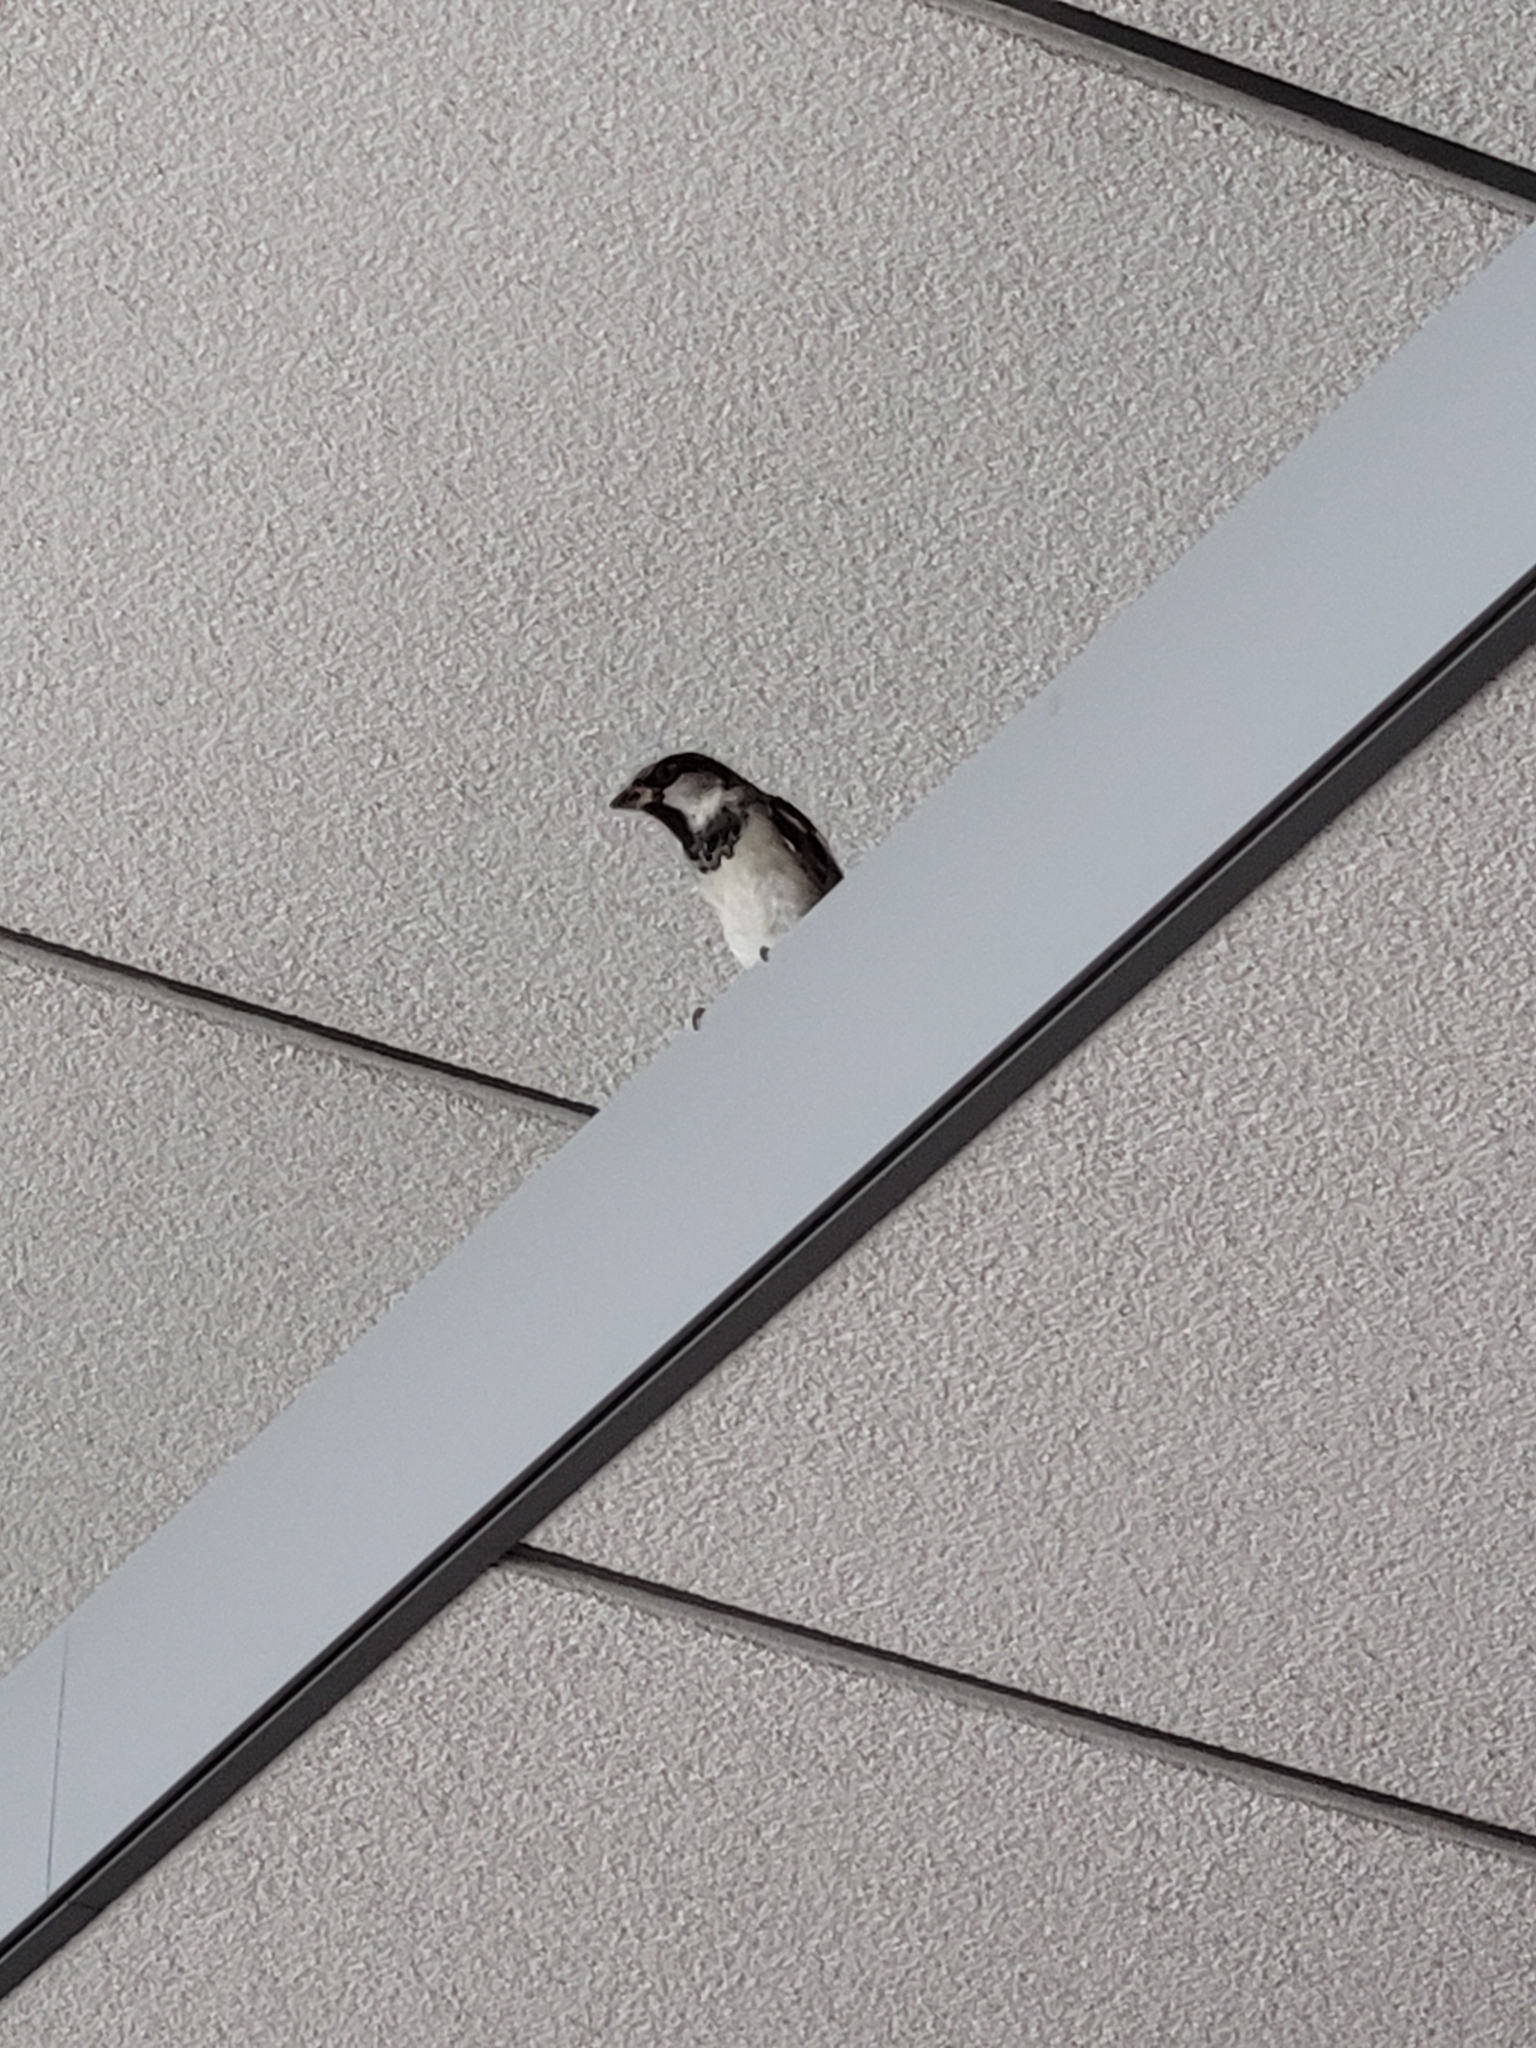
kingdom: Animalia
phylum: Chordata
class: Aves
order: Passeriformes
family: Passeridae
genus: Passer
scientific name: Passer domesticus
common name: House sparrow
